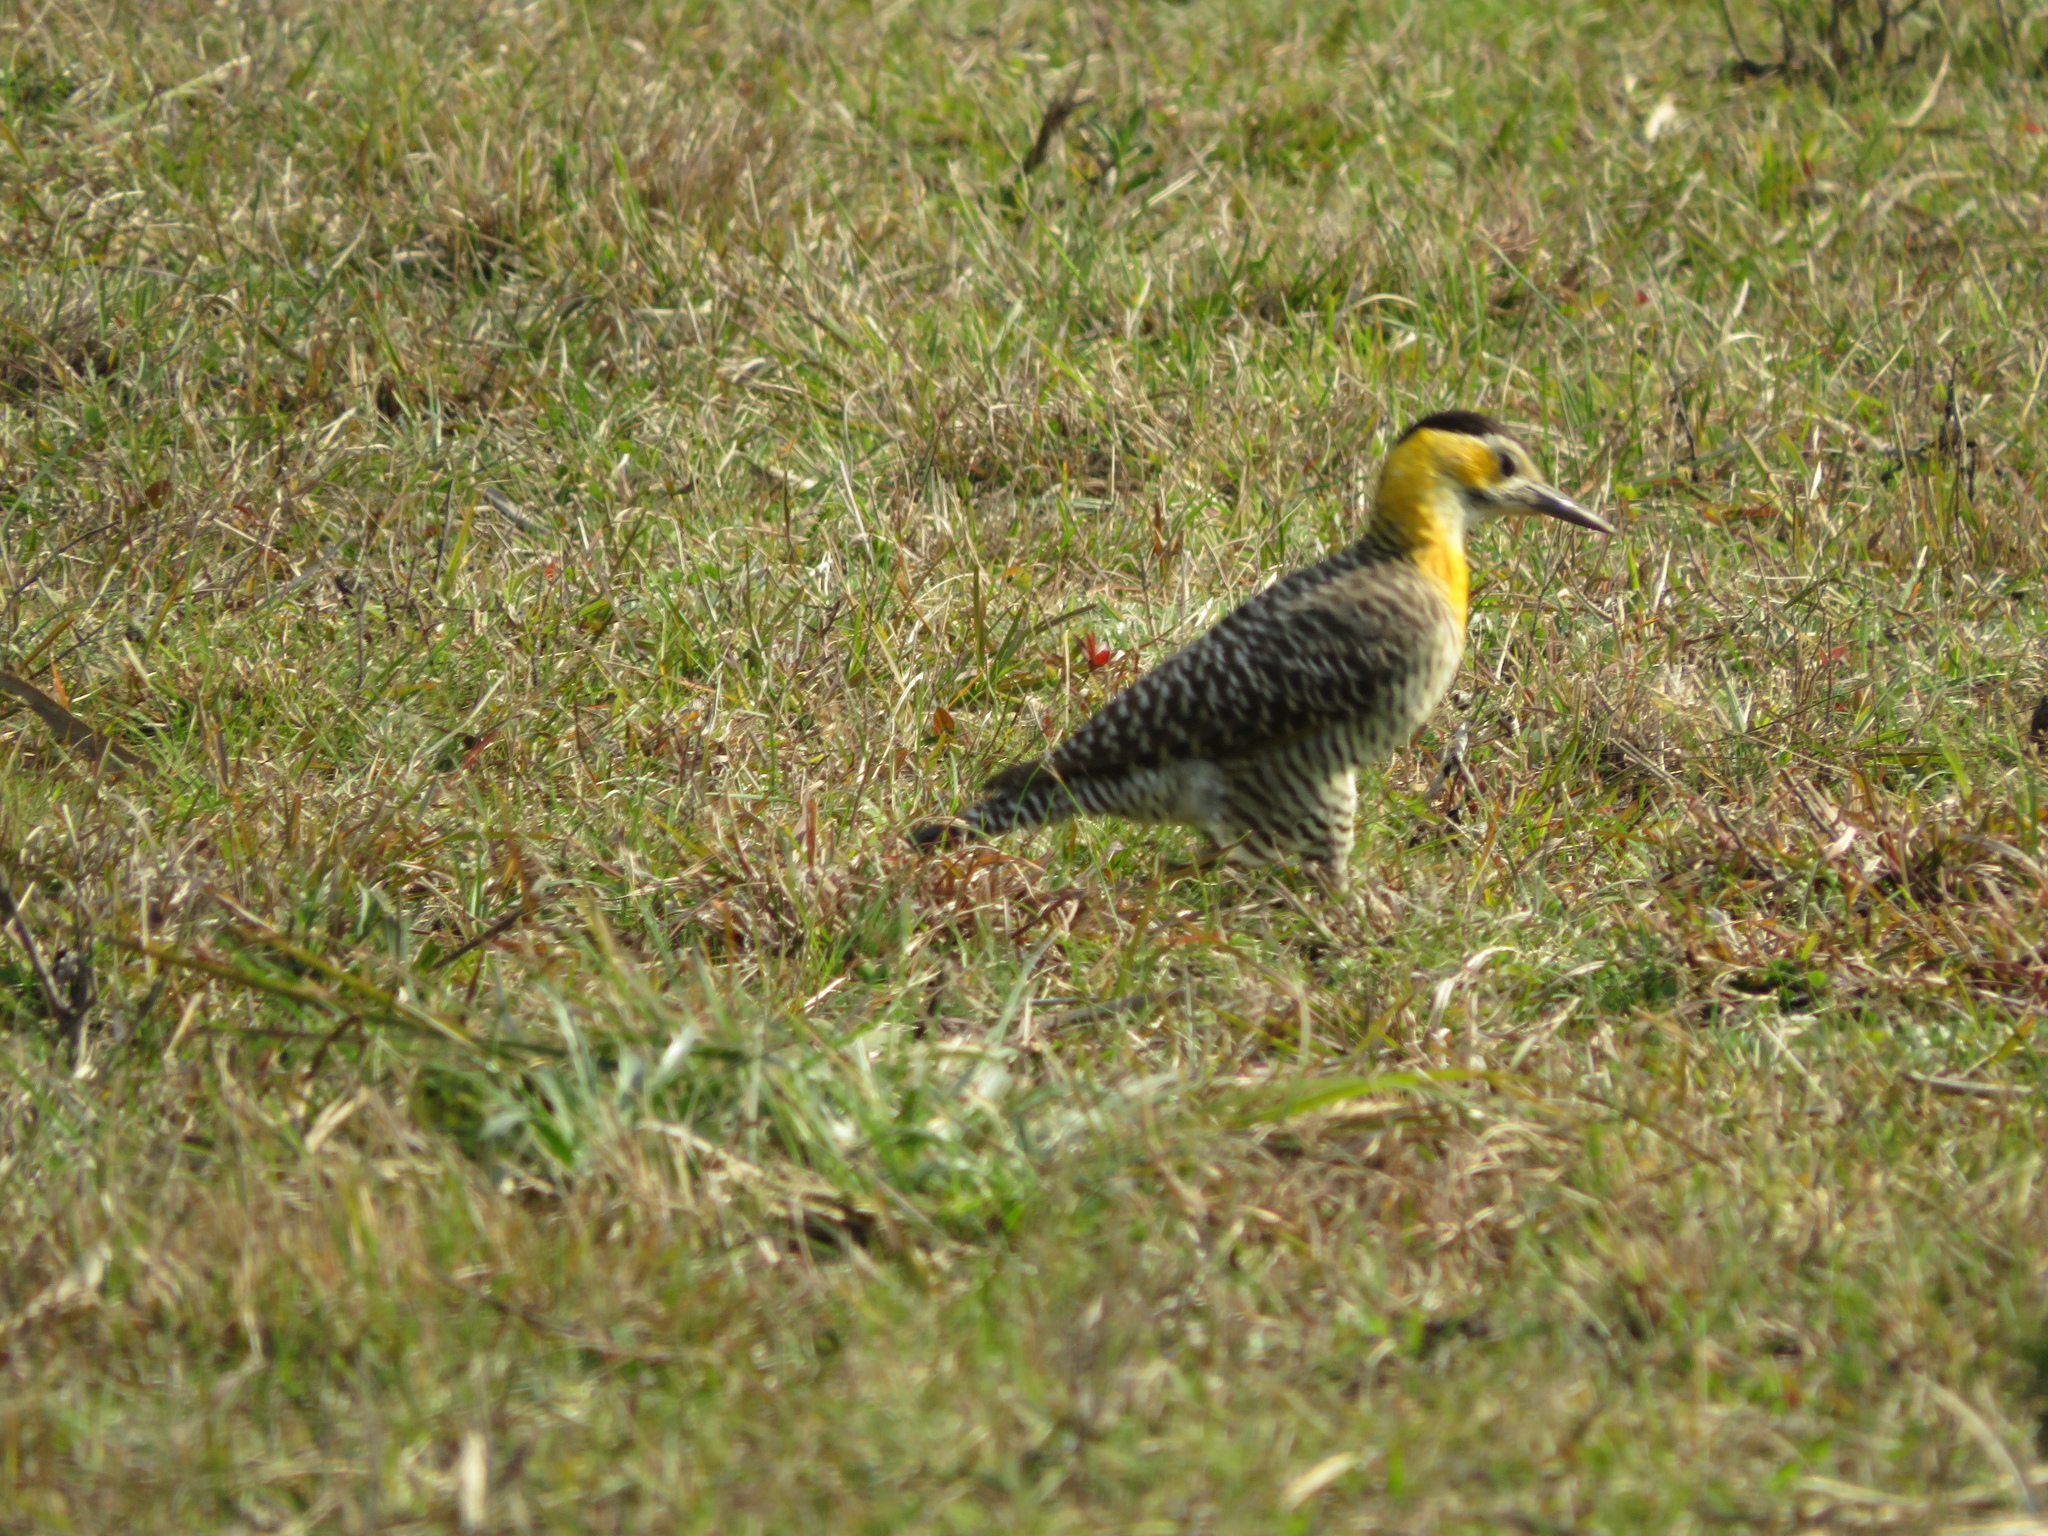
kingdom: Animalia
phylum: Chordata
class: Aves
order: Piciformes
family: Picidae
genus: Colaptes
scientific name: Colaptes campestris
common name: Campo flicker
